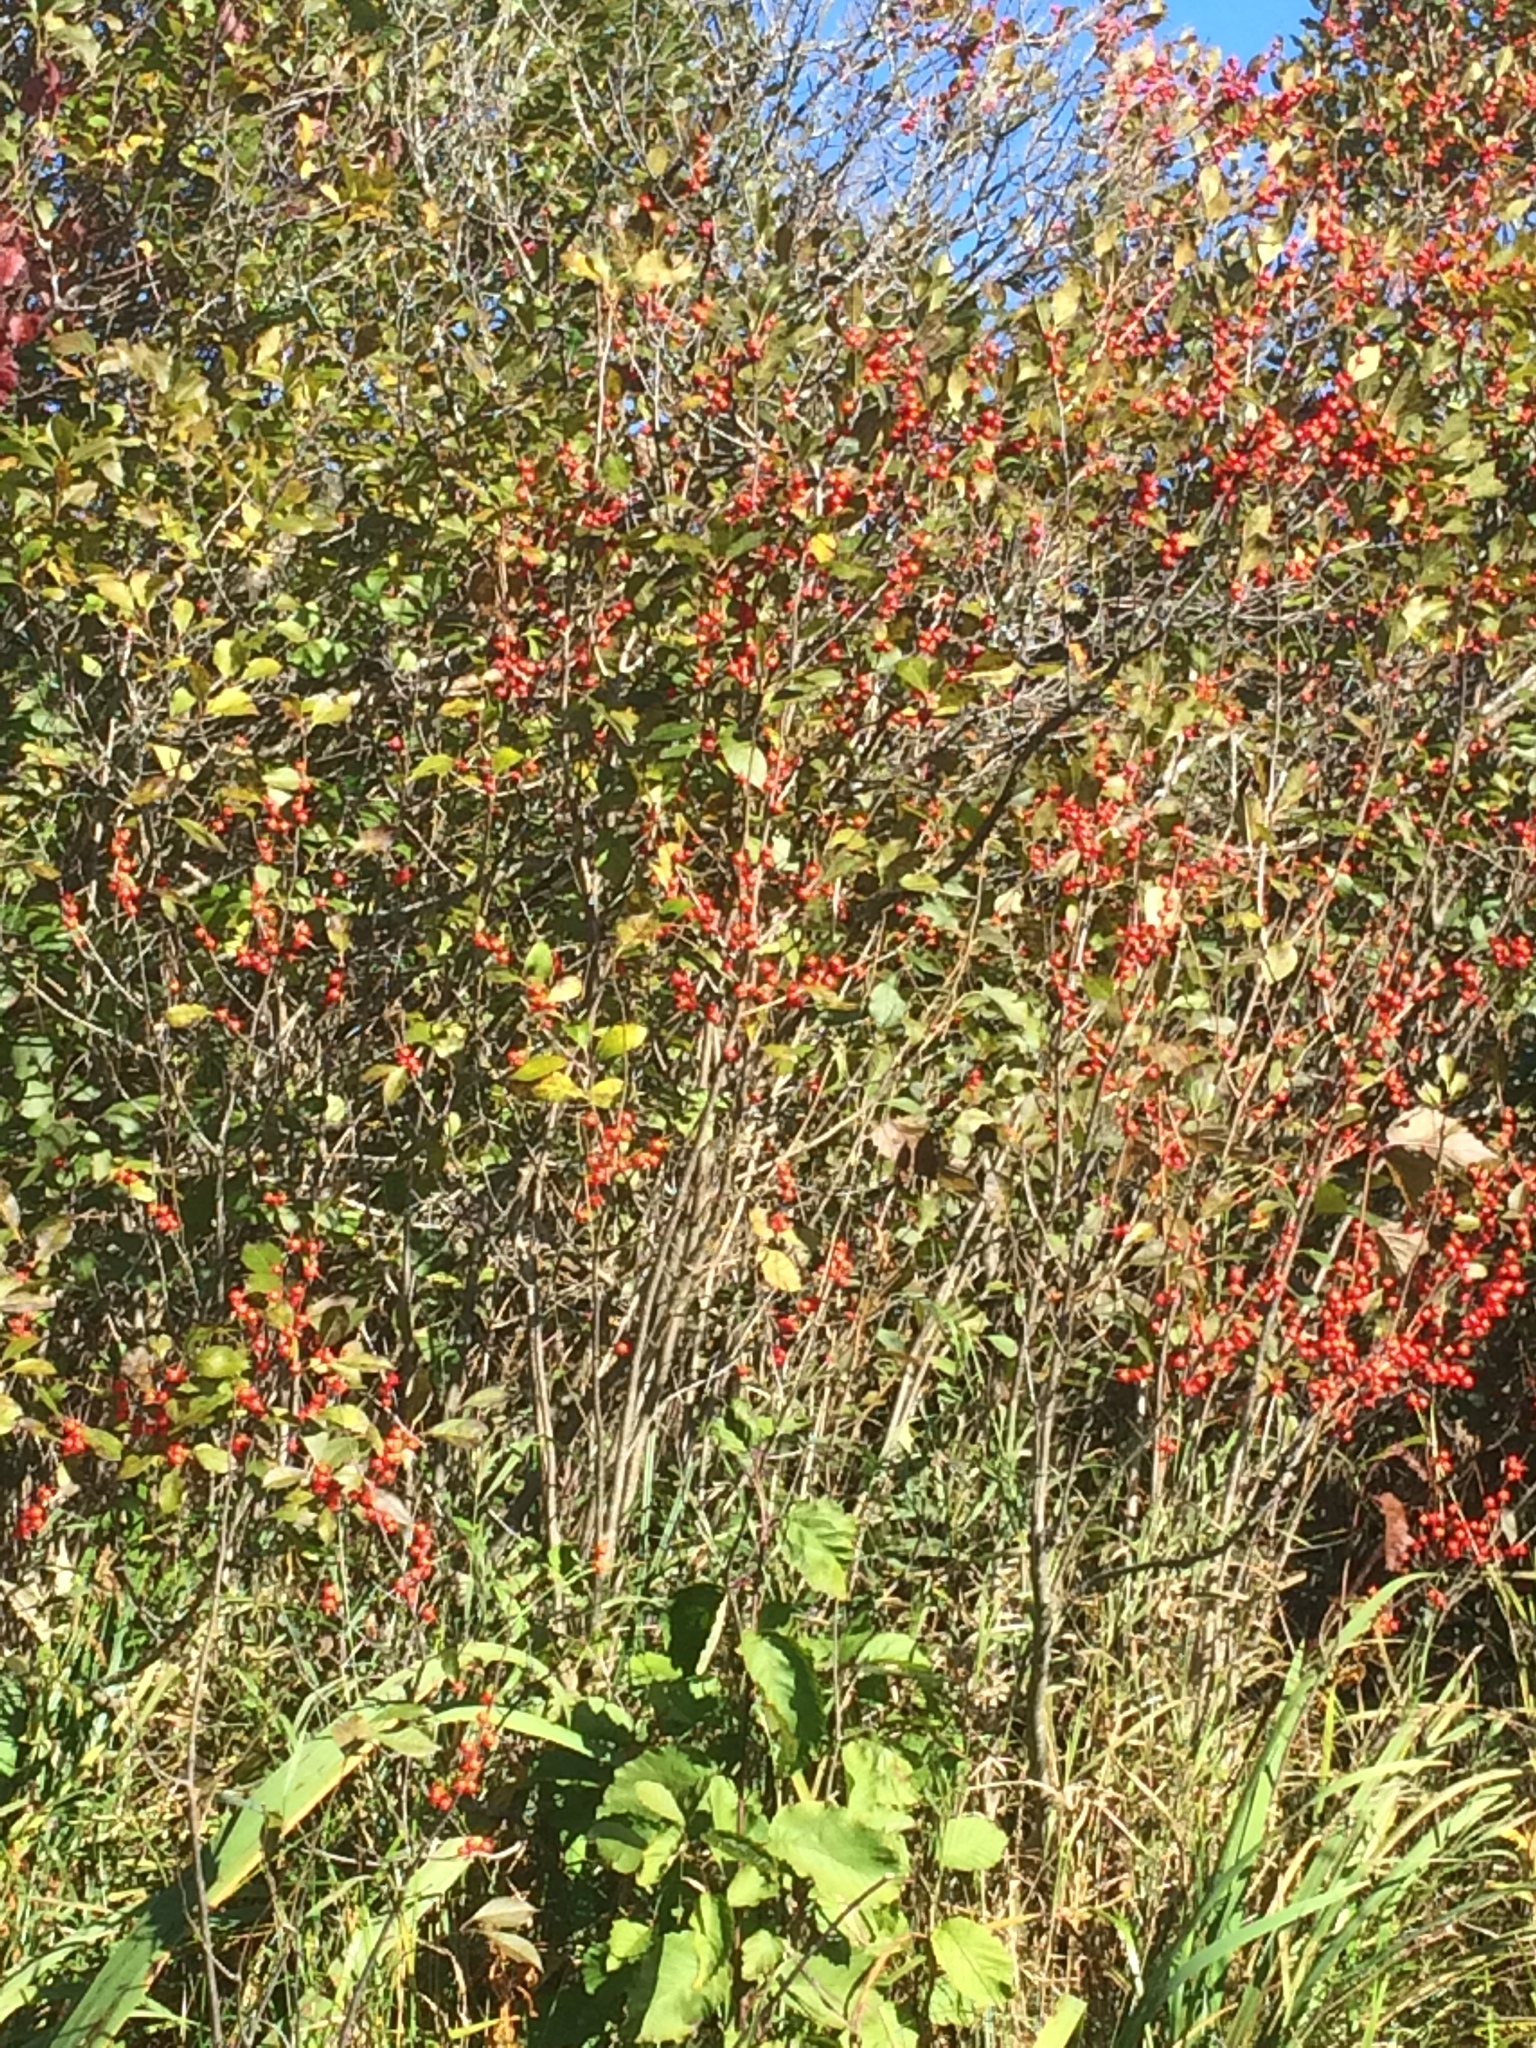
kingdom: Plantae
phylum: Tracheophyta
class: Magnoliopsida
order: Aquifoliales
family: Aquifoliaceae
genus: Ilex
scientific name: Ilex verticillata
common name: Virginia winterberry
